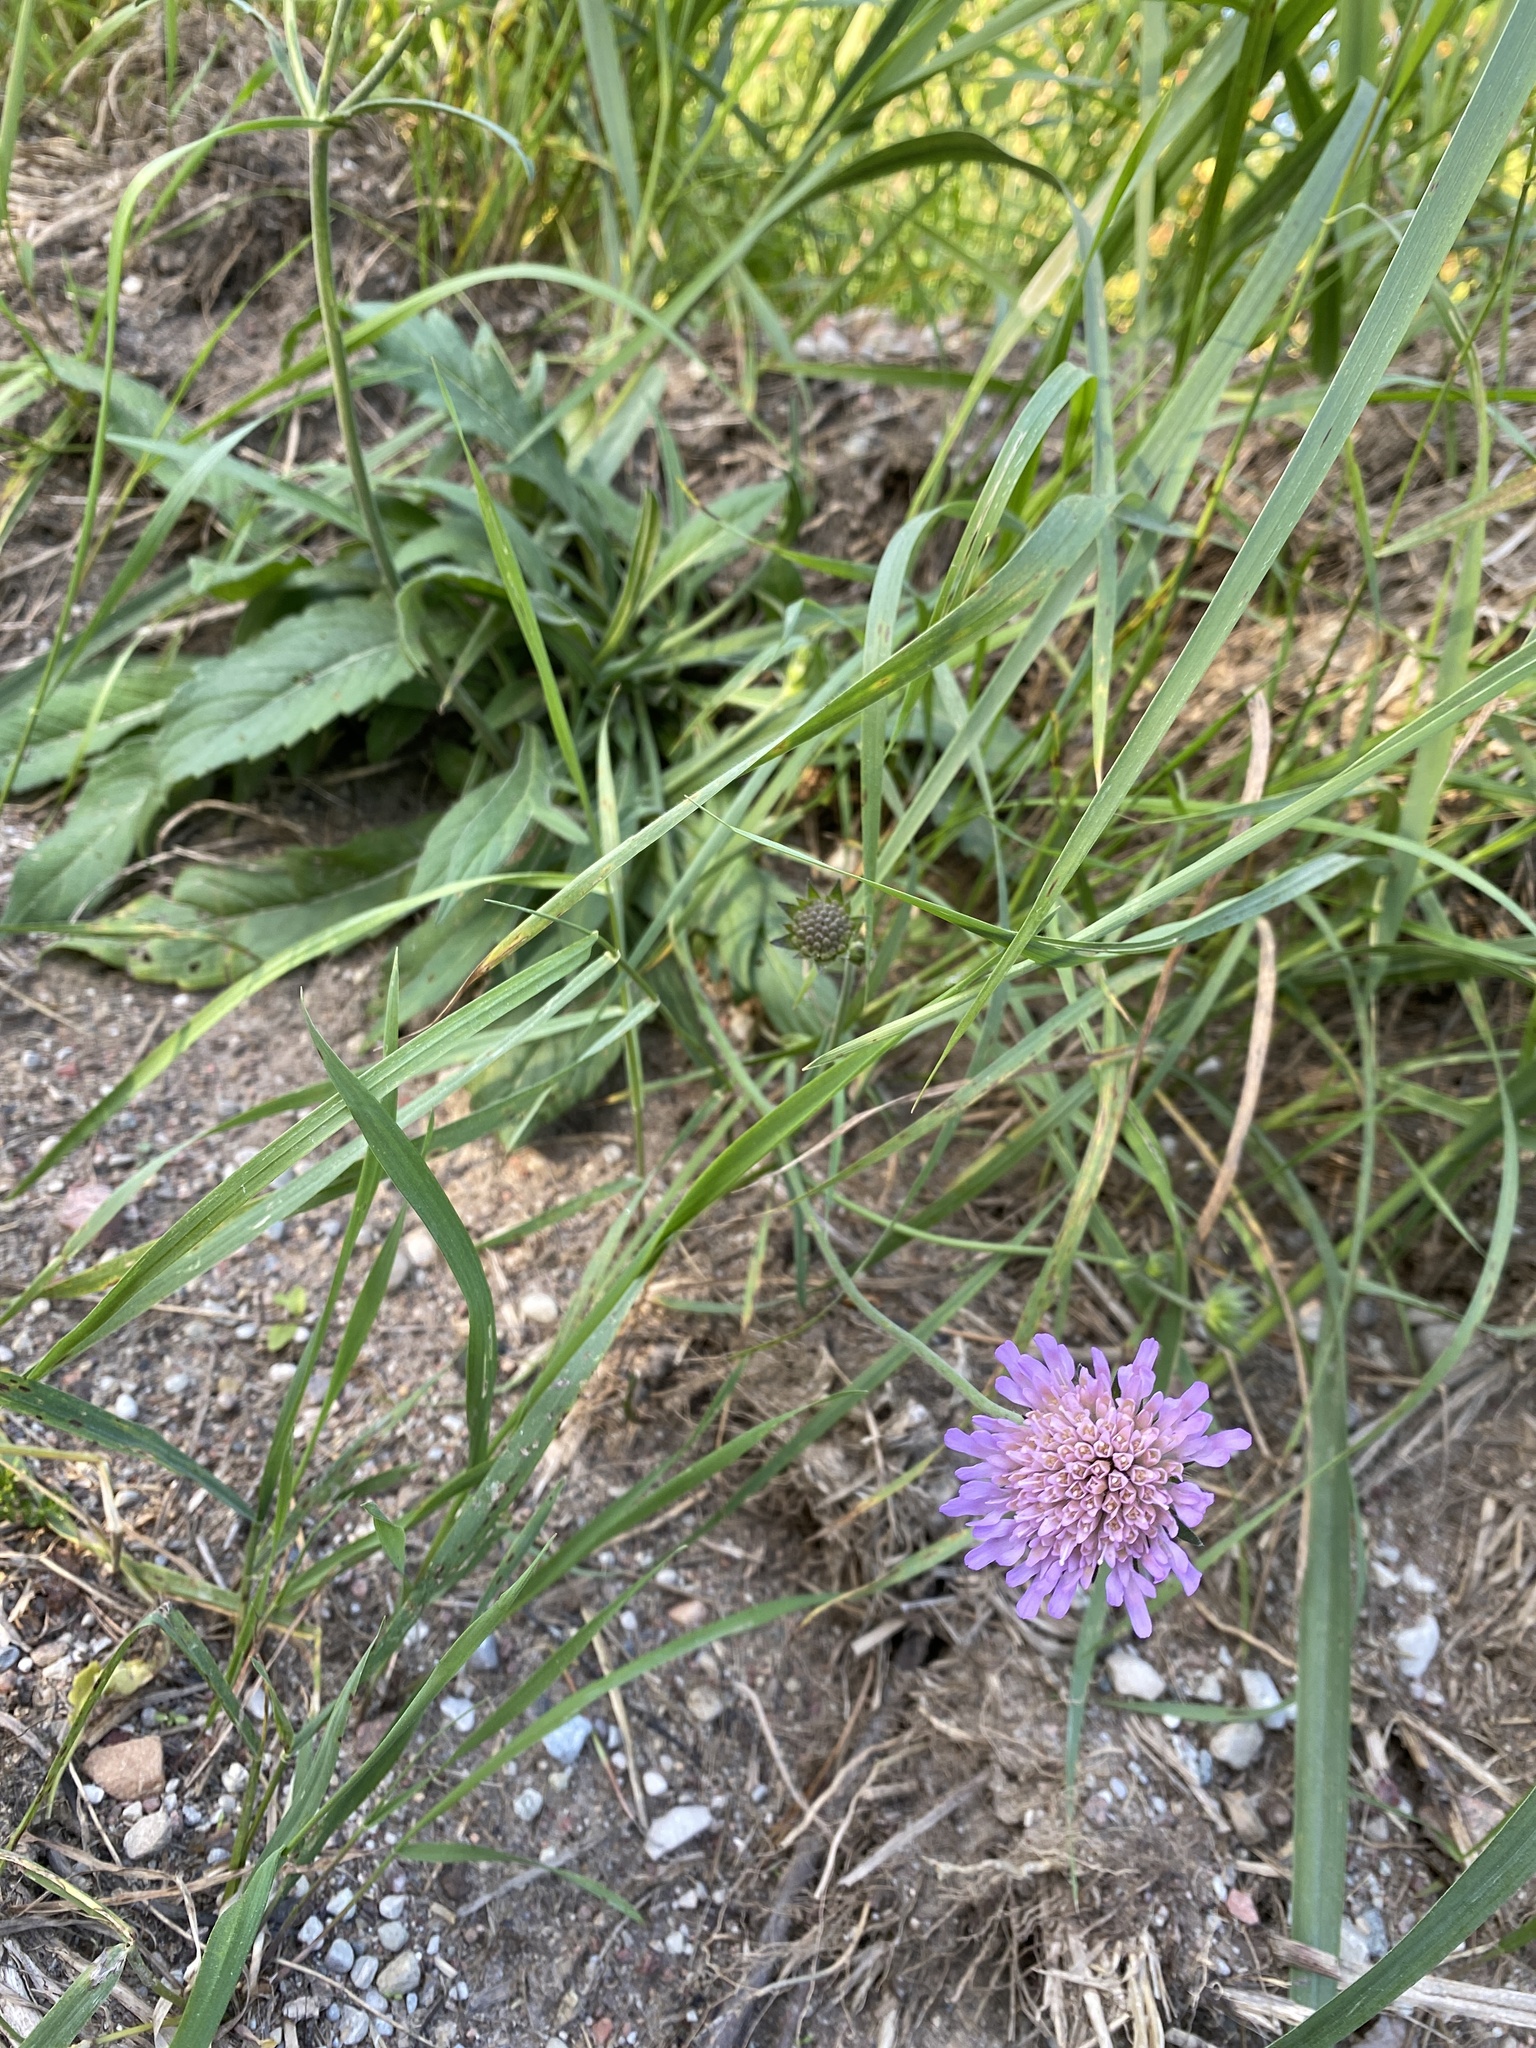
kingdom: Plantae
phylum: Tracheophyta
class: Magnoliopsida
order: Dipsacales
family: Caprifoliaceae
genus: Knautia
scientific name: Knautia arvensis
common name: Field scabiosa
